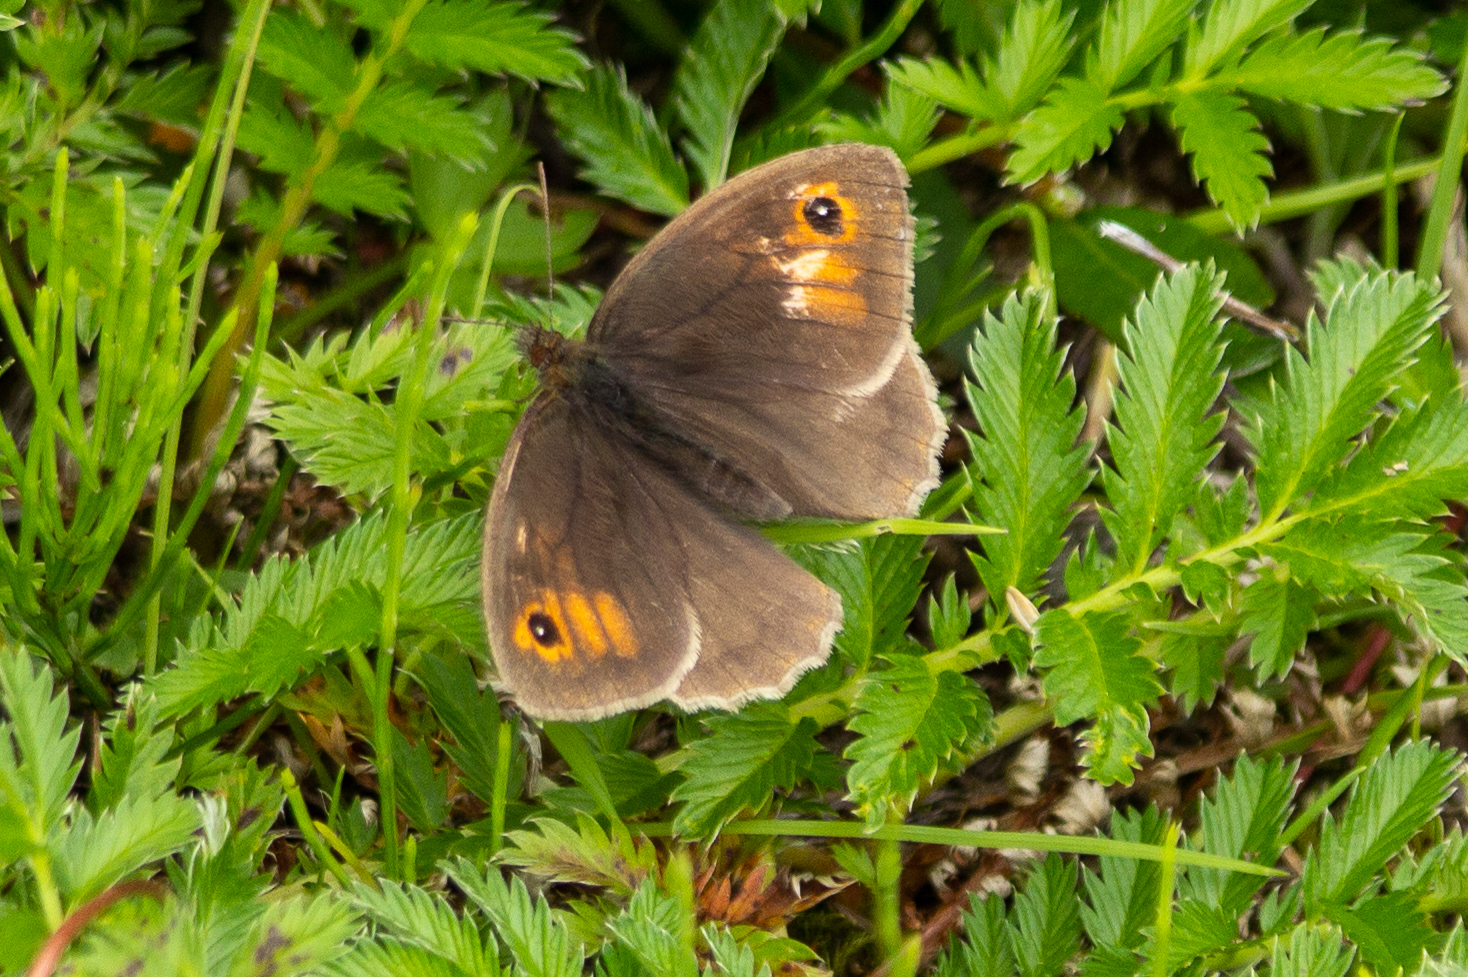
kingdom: Animalia
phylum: Arthropoda
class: Insecta
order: Lepidoptera
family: Nymphalidae
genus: Maniola
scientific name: Maniola jurtina
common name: Meadow brown
